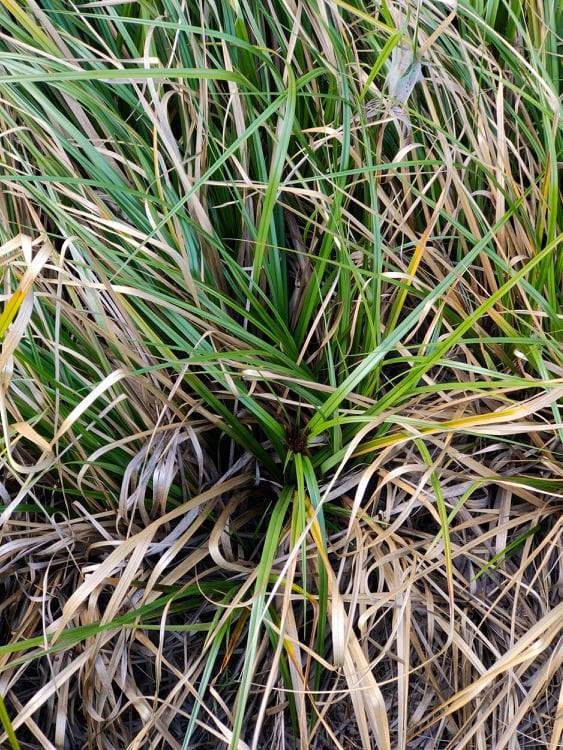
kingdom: Plantae
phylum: Tracheophyta
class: Liliopsida
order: Poales
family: Cyperaceae
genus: Cyperus
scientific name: Cyperus ustulatus
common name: Giant umbrella-sedge
